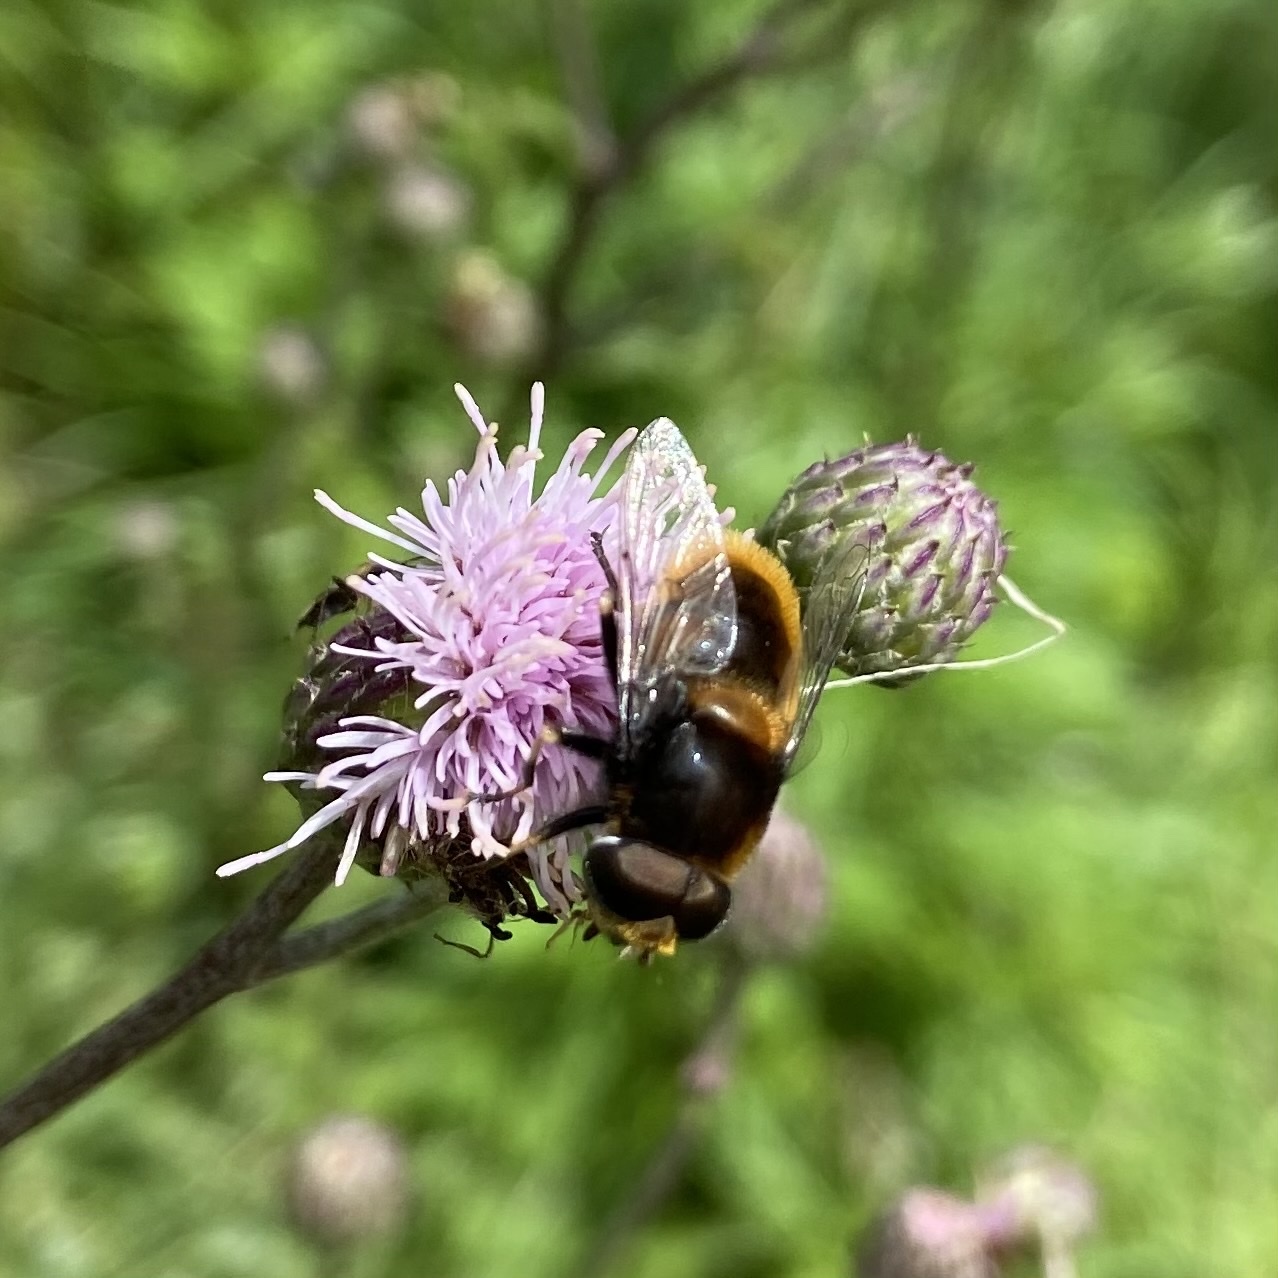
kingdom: Animalia
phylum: Arthropoda
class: Insecta
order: Diptera
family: Syrphidae
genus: Eristalis
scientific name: Eristalis intricaria
